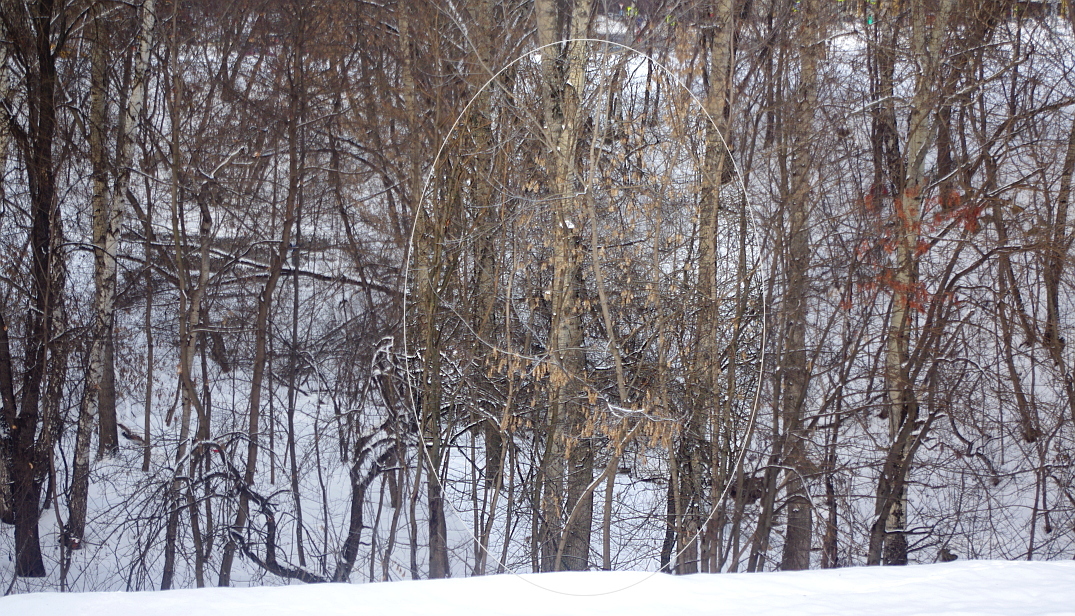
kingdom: Plantae
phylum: Tracheophyta
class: Magnoliopsida
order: Sapindales
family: Sapindaceae
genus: Acer
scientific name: Acer negundo
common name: Ashleaf maple
